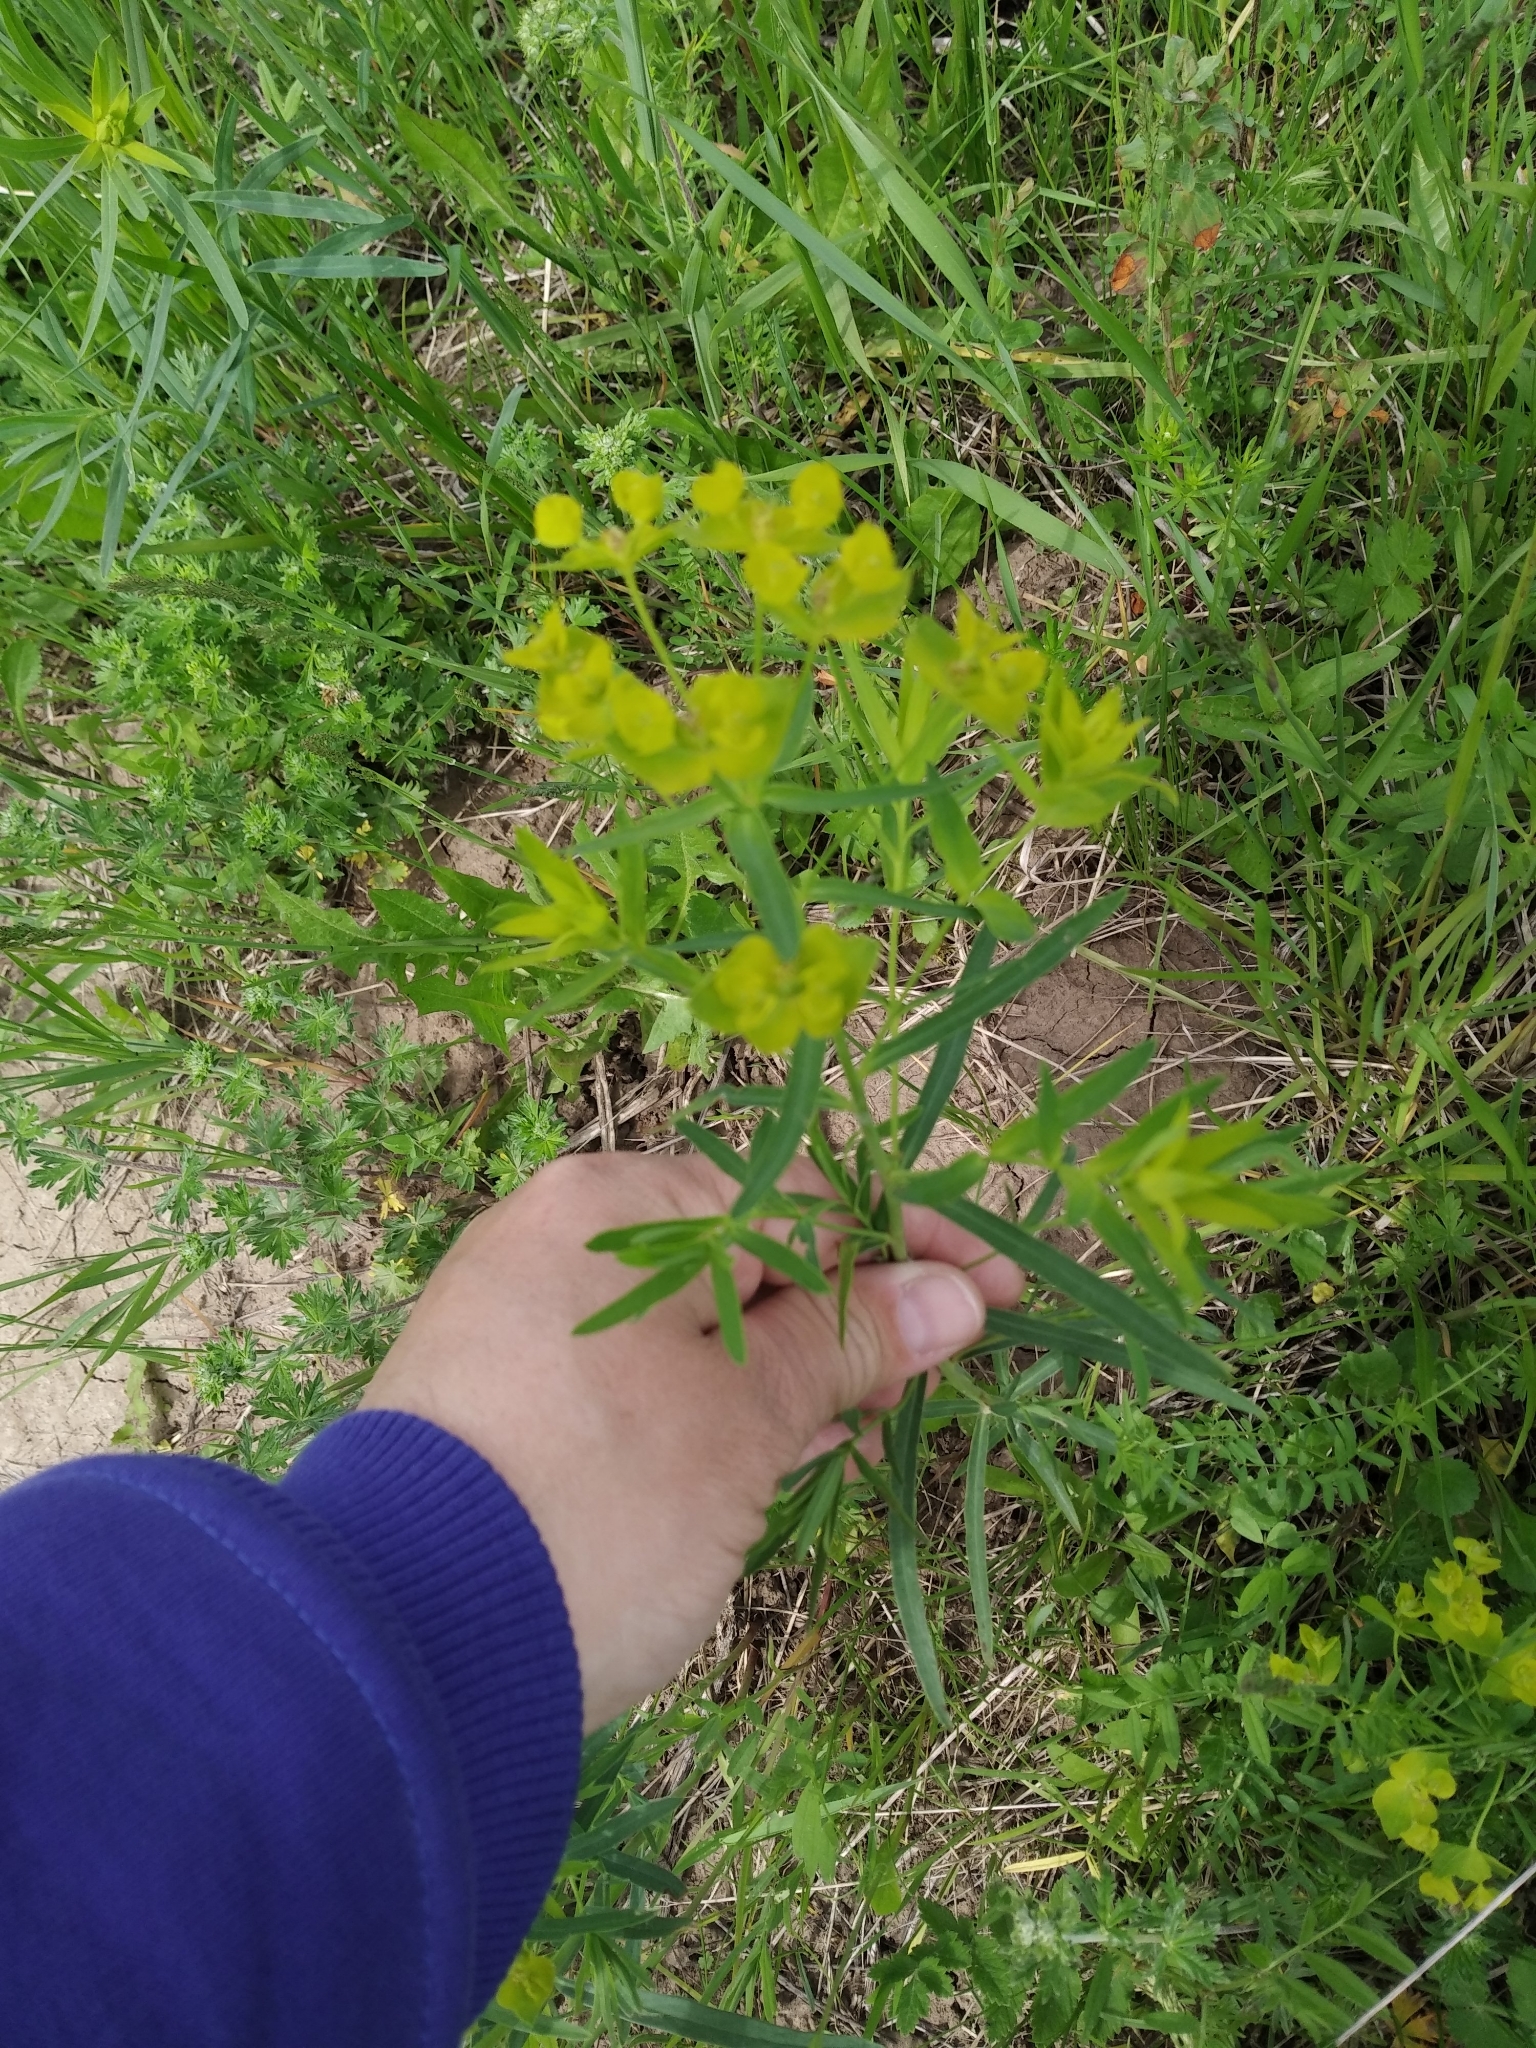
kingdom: Plantae
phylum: Tracheophyta
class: Magnoliopsida
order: Malpighiales
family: Euphorbiaceae
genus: Euphorbia
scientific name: Euphorbia virgata
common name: Leafy spurge
